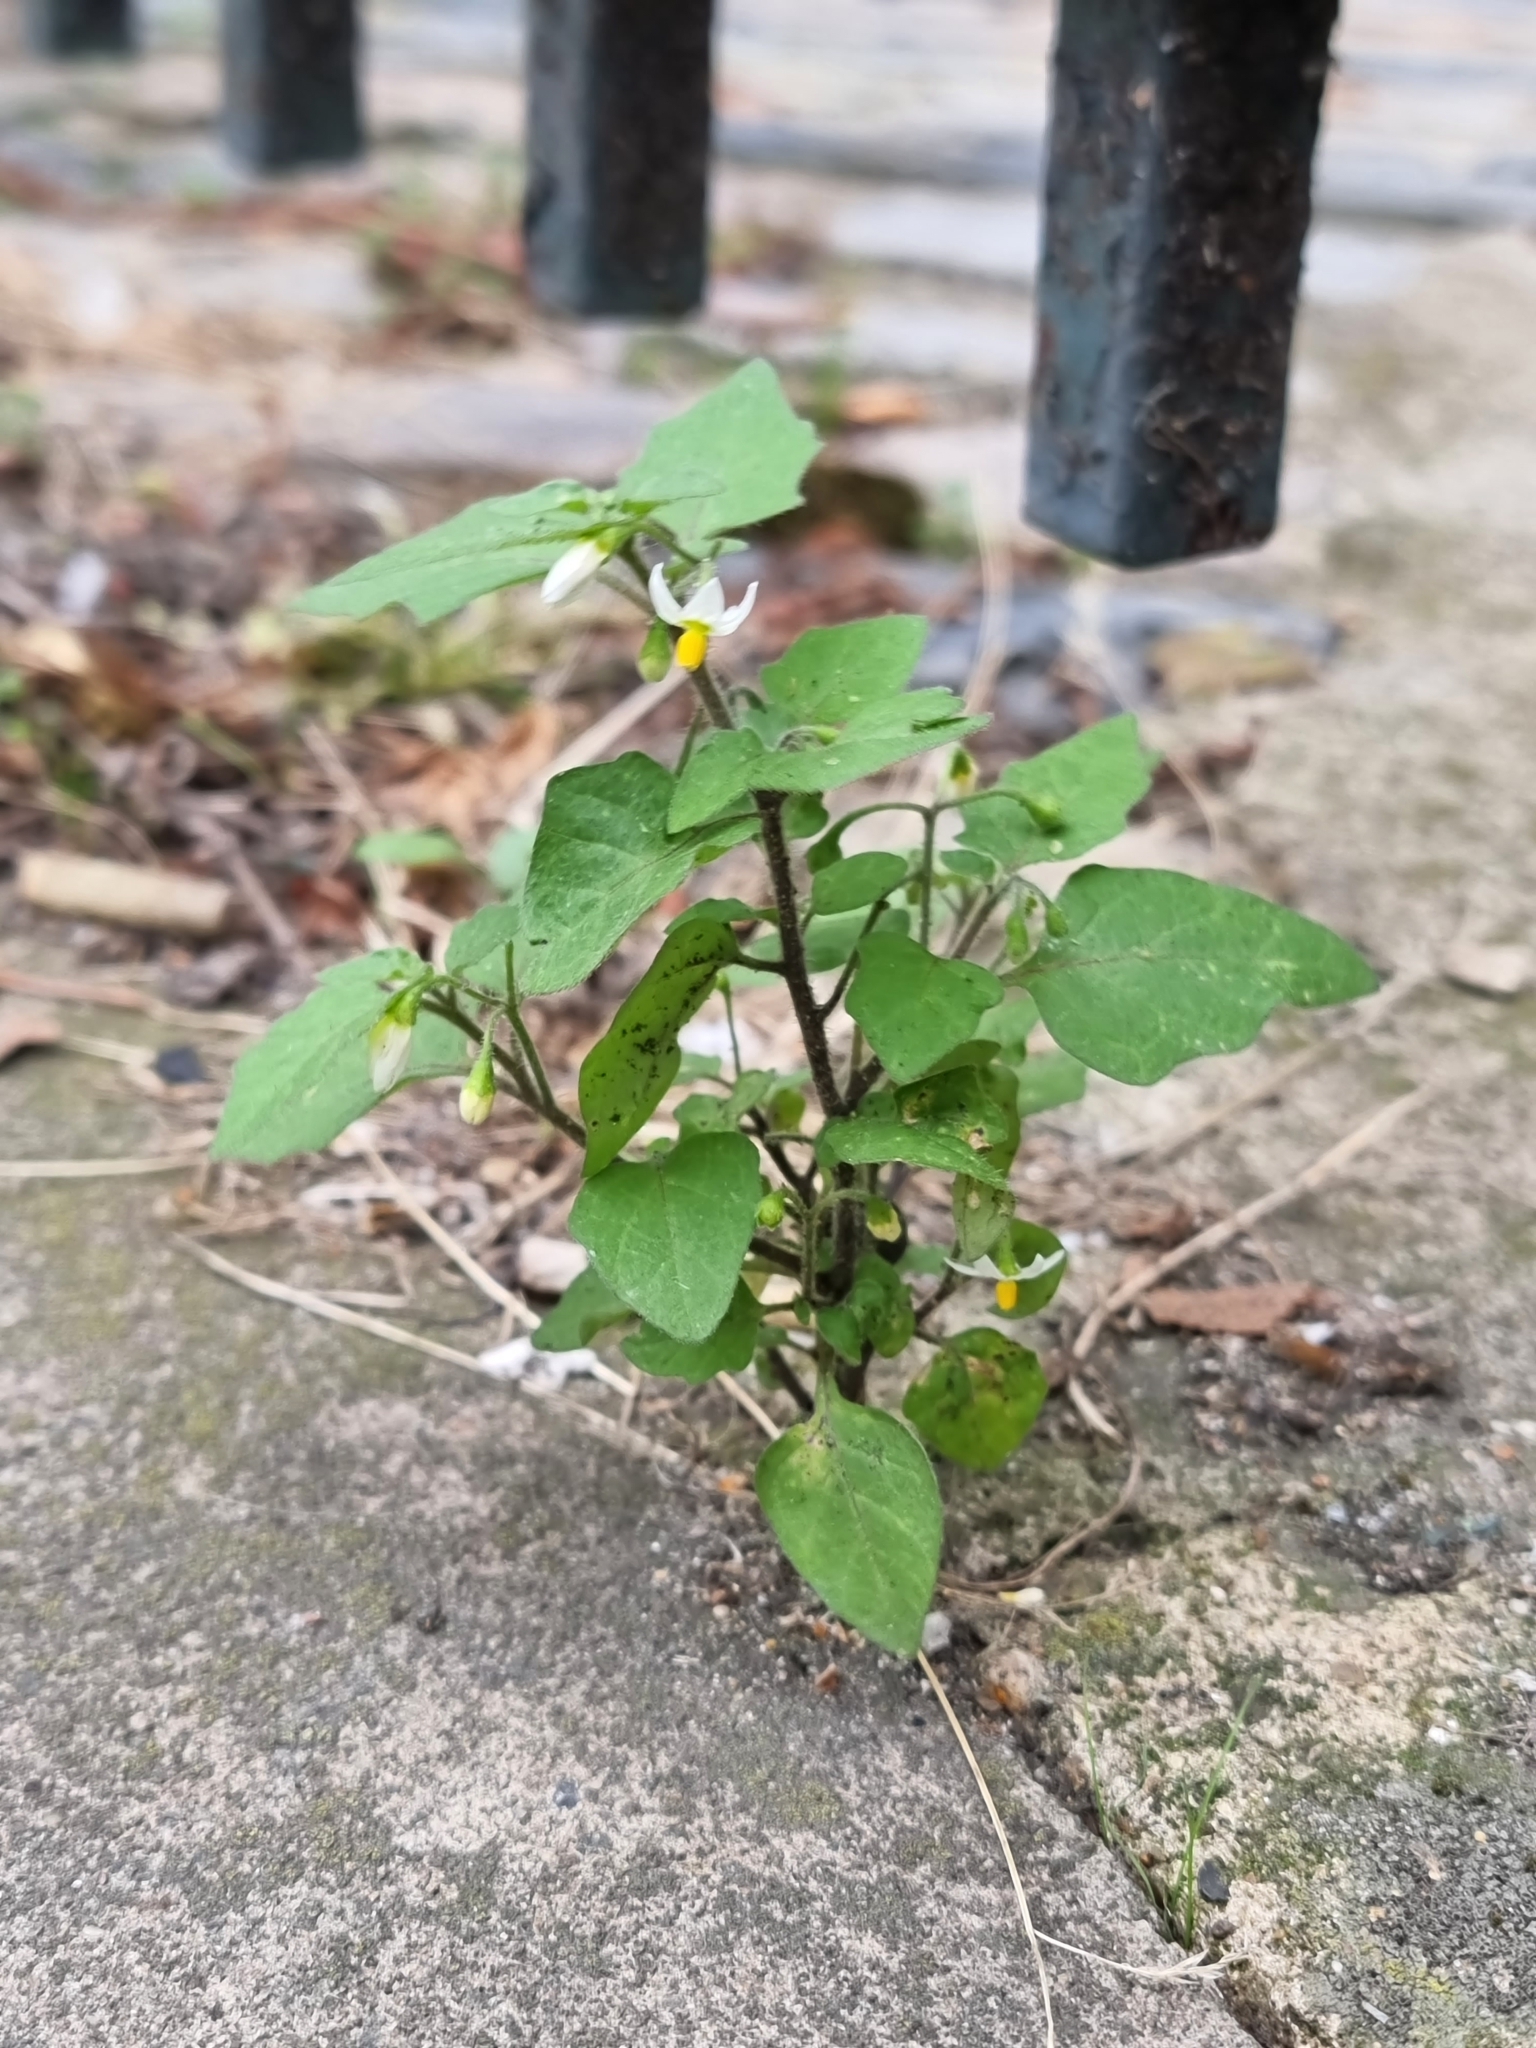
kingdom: Plantae
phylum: Tracheophyta
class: Magnoliopsida
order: Solanales
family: Solanaceae
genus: Solanum
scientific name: Solanum nigrum
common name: Black nightshade
